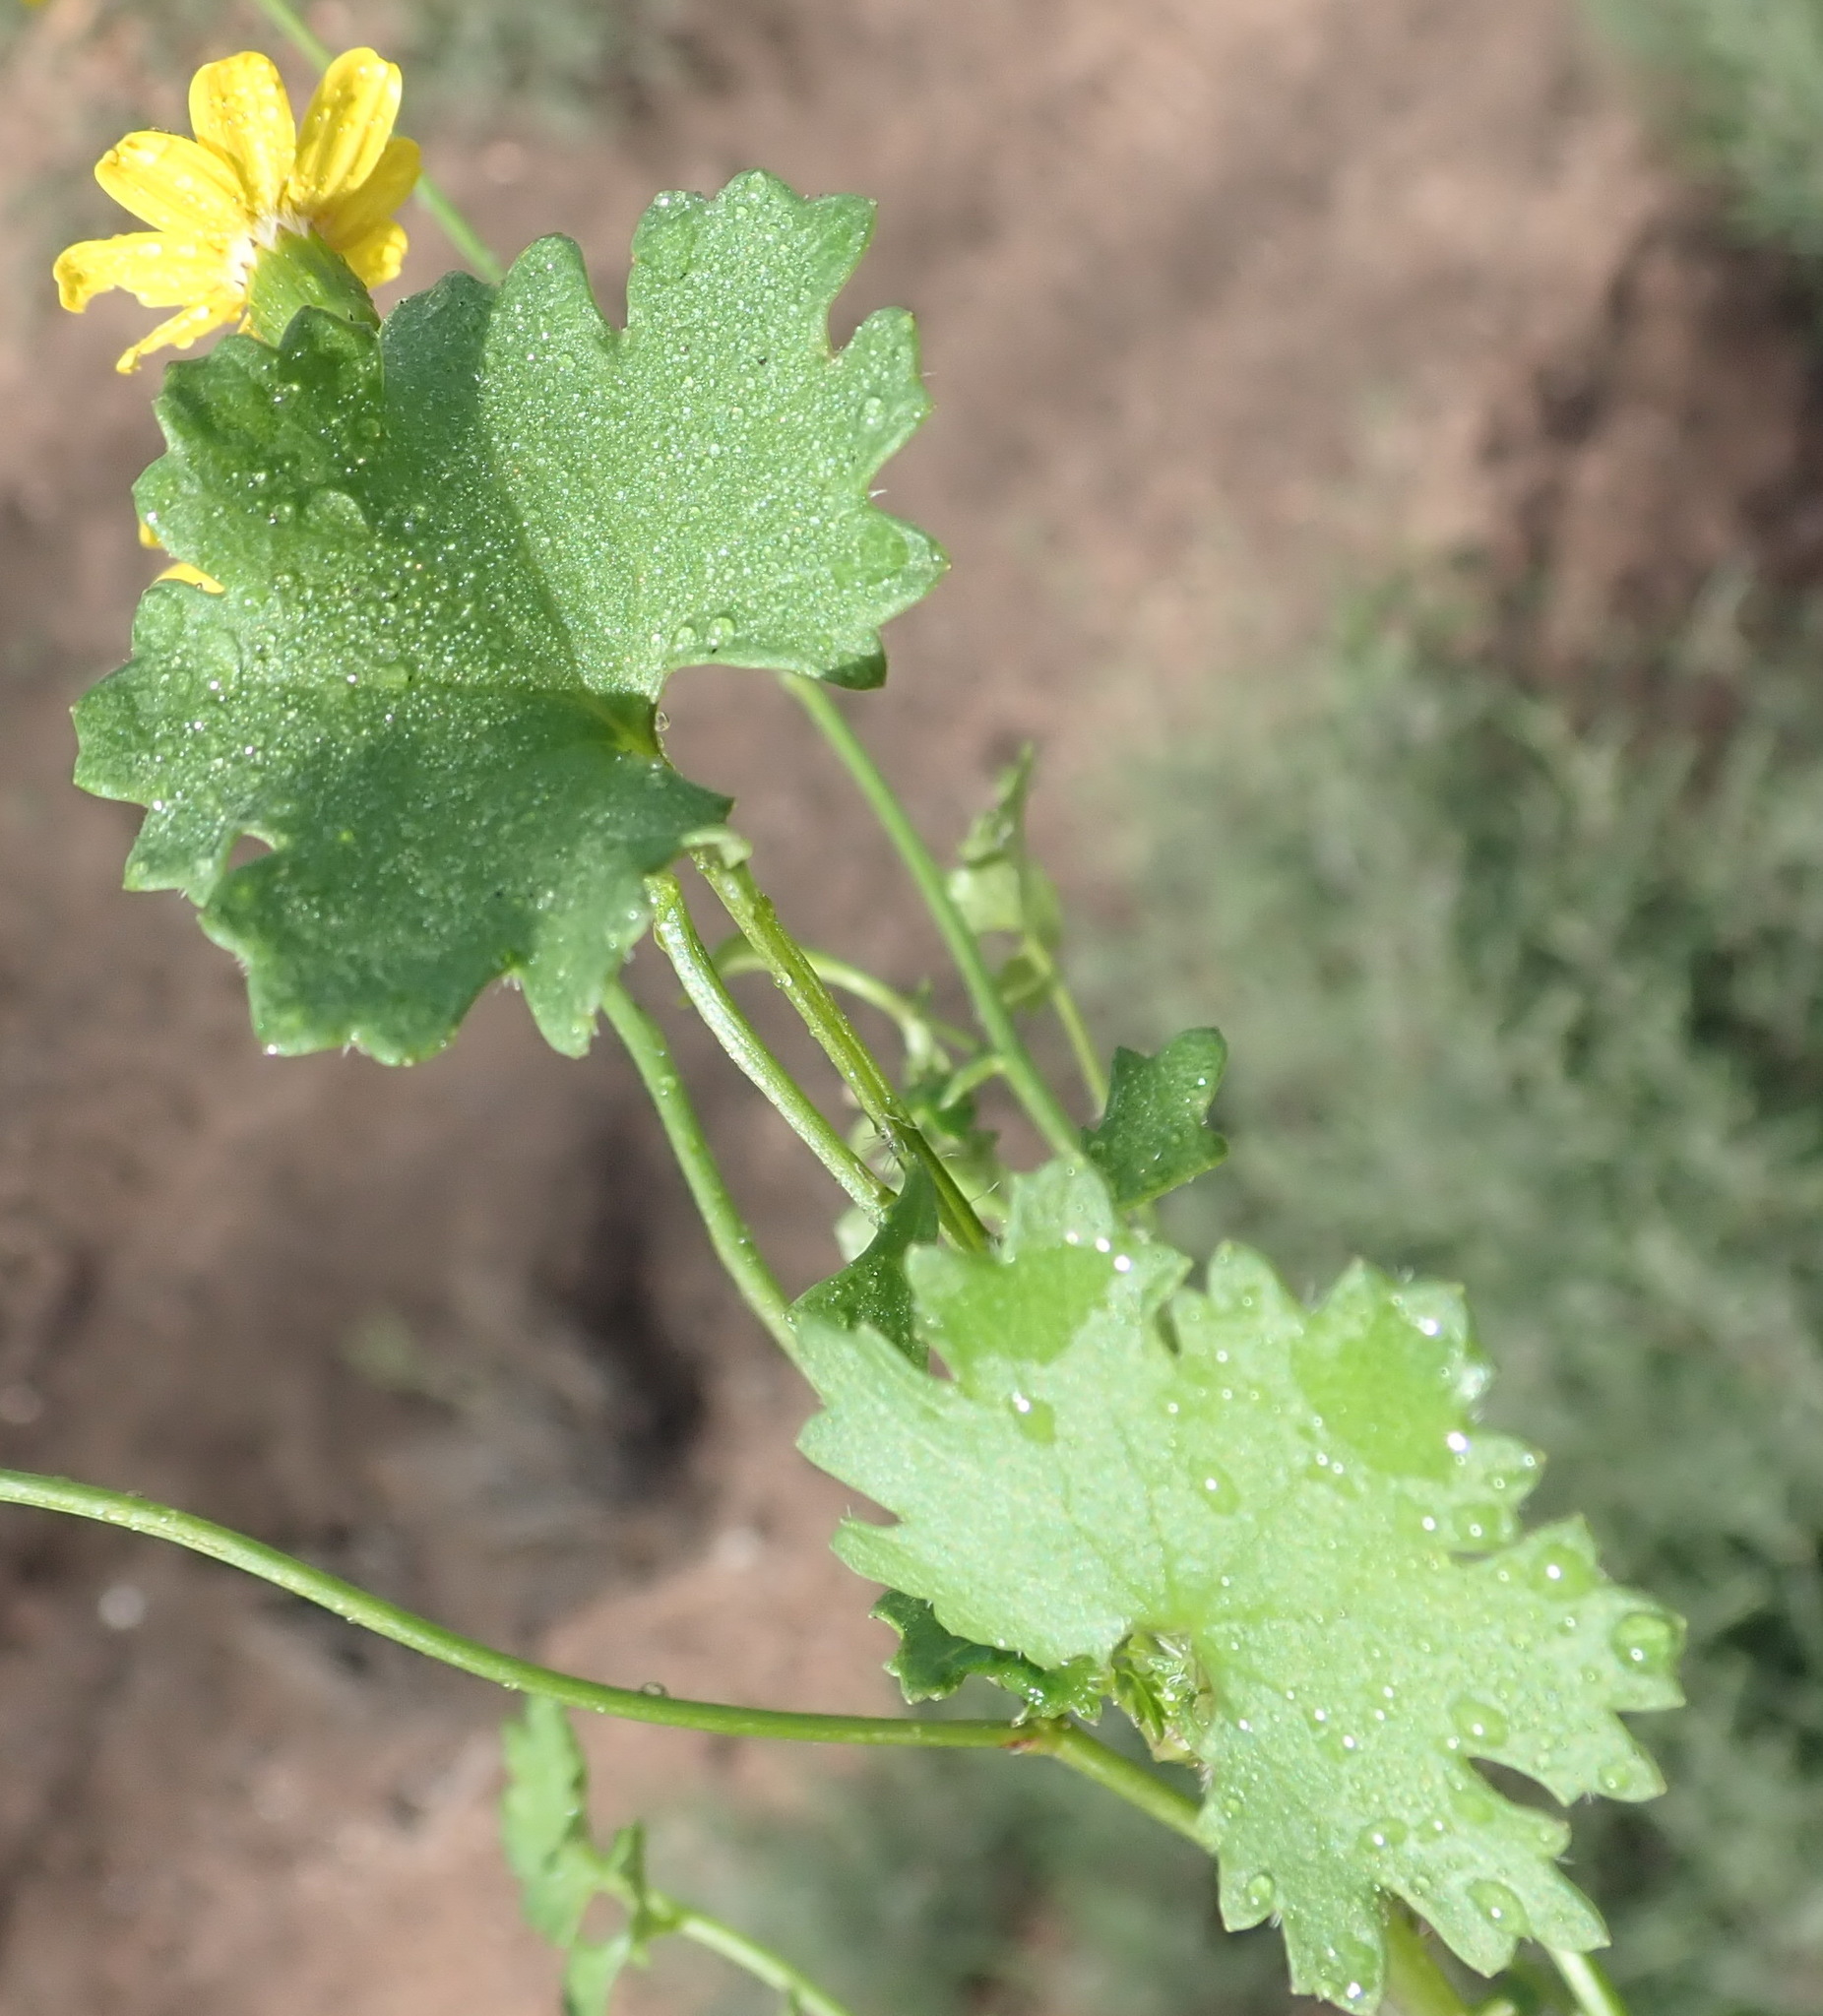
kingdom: Plantae
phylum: Tracheophyta
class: Magnoliopsida
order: Asterales
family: Asteraceae
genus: Cineraria
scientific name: Cineraria lobata
